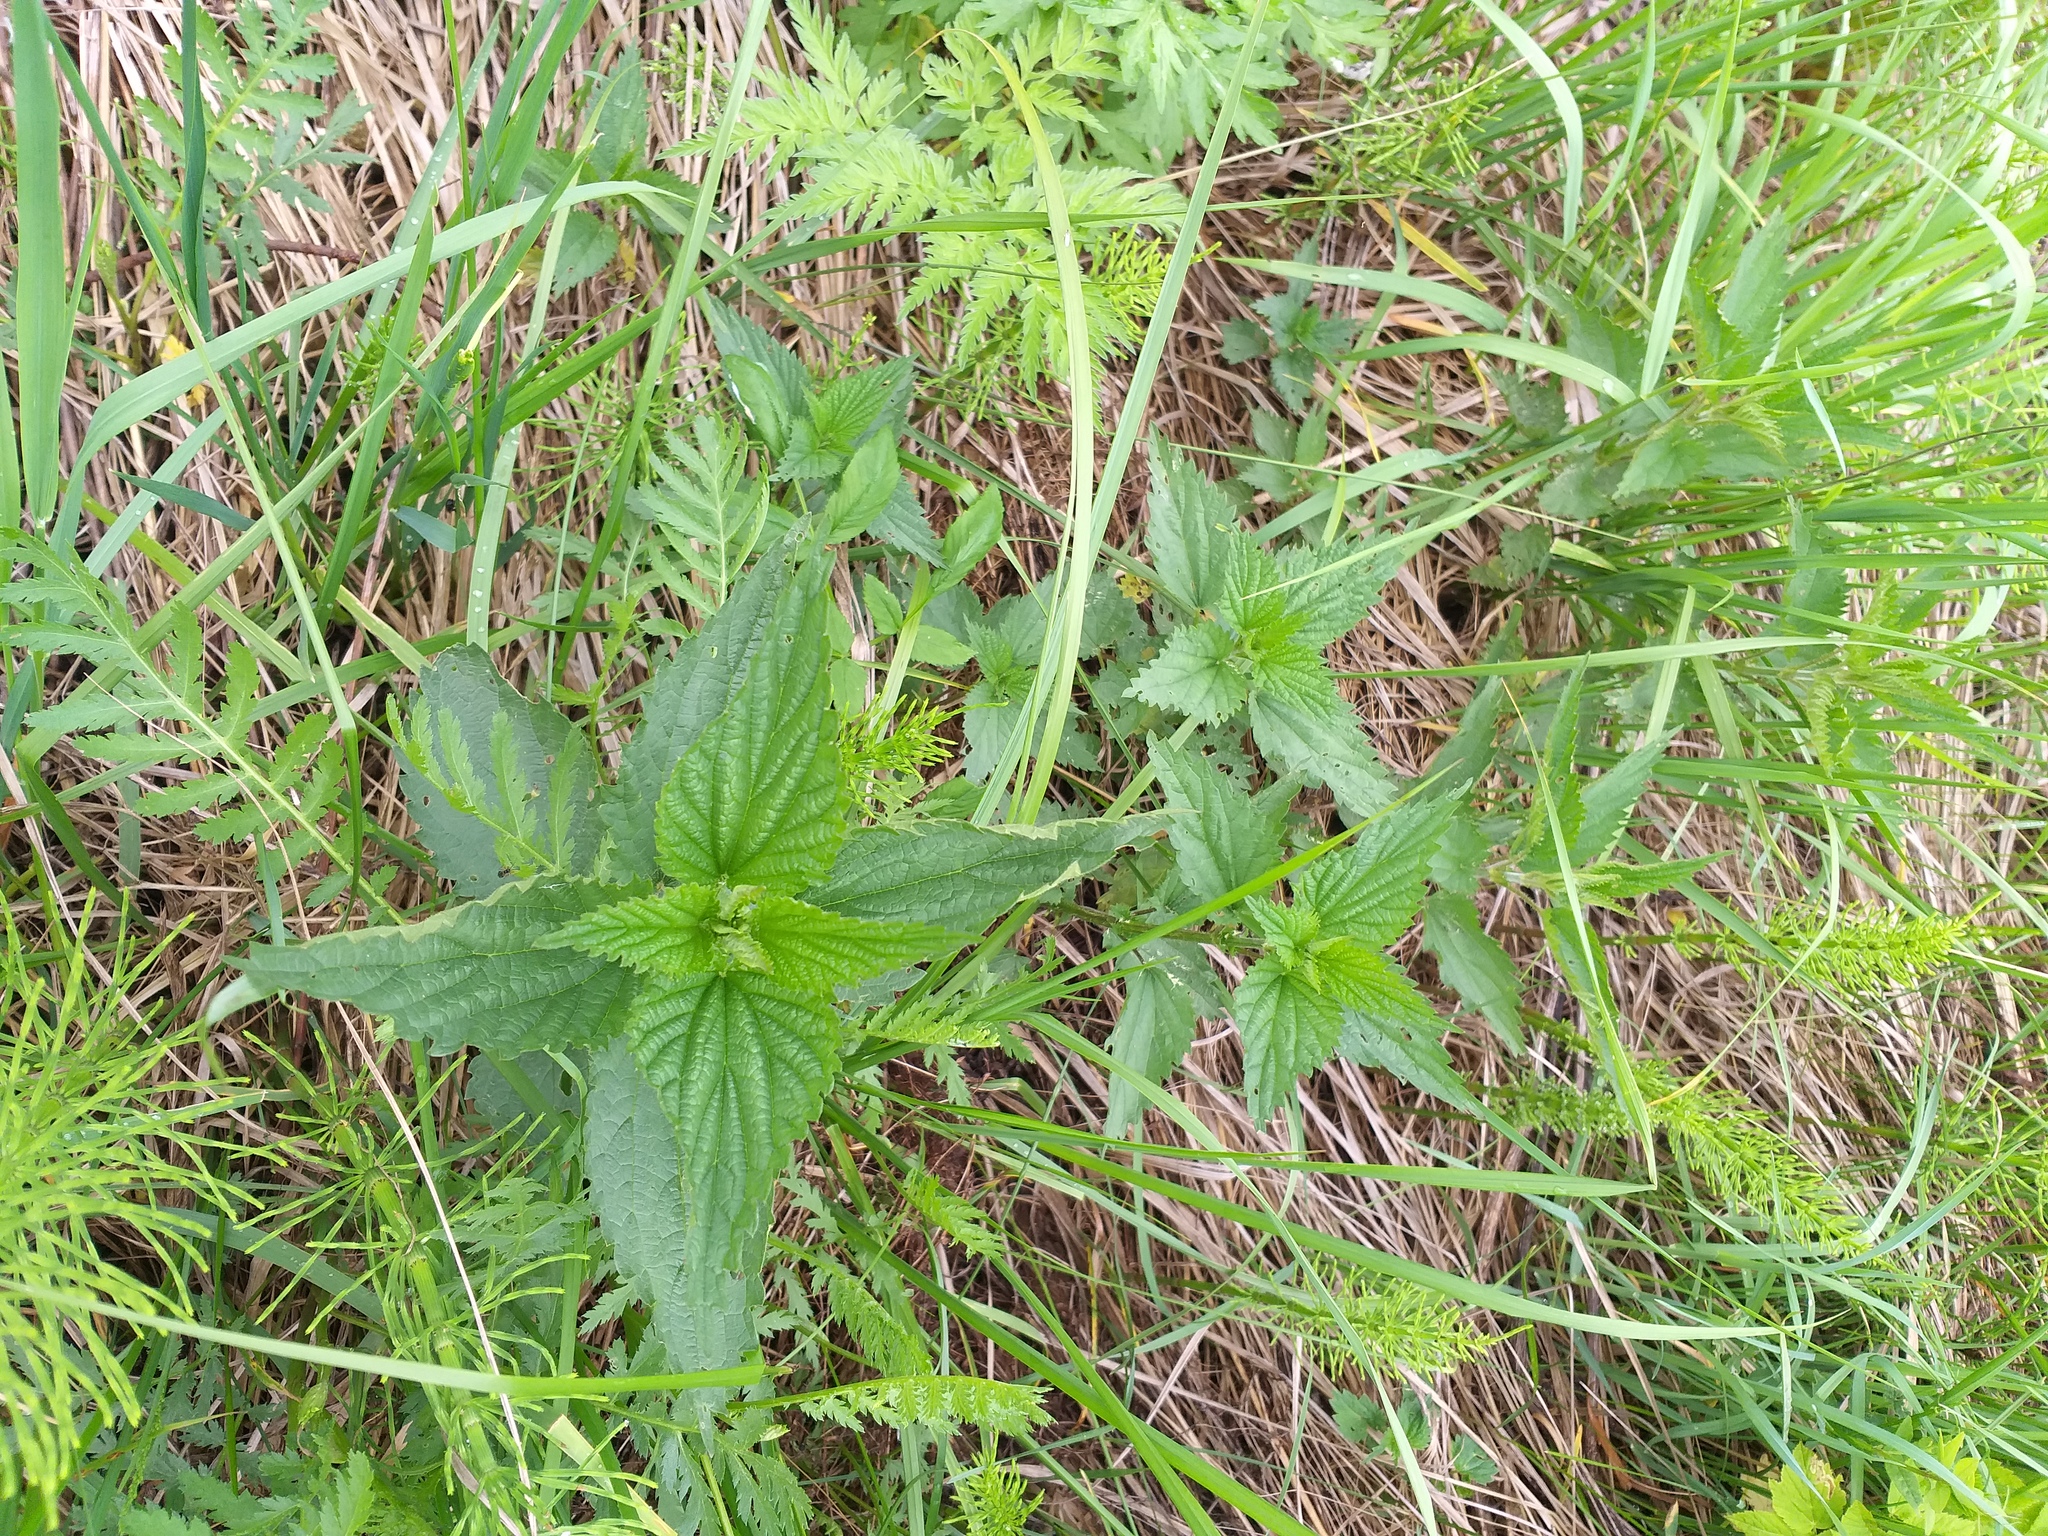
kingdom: Plantae
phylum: Tracheophyta
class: Magnoliopsida
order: Rosales
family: Urticaceae
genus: Urtica
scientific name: Urtica dioica
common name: Common nettle
